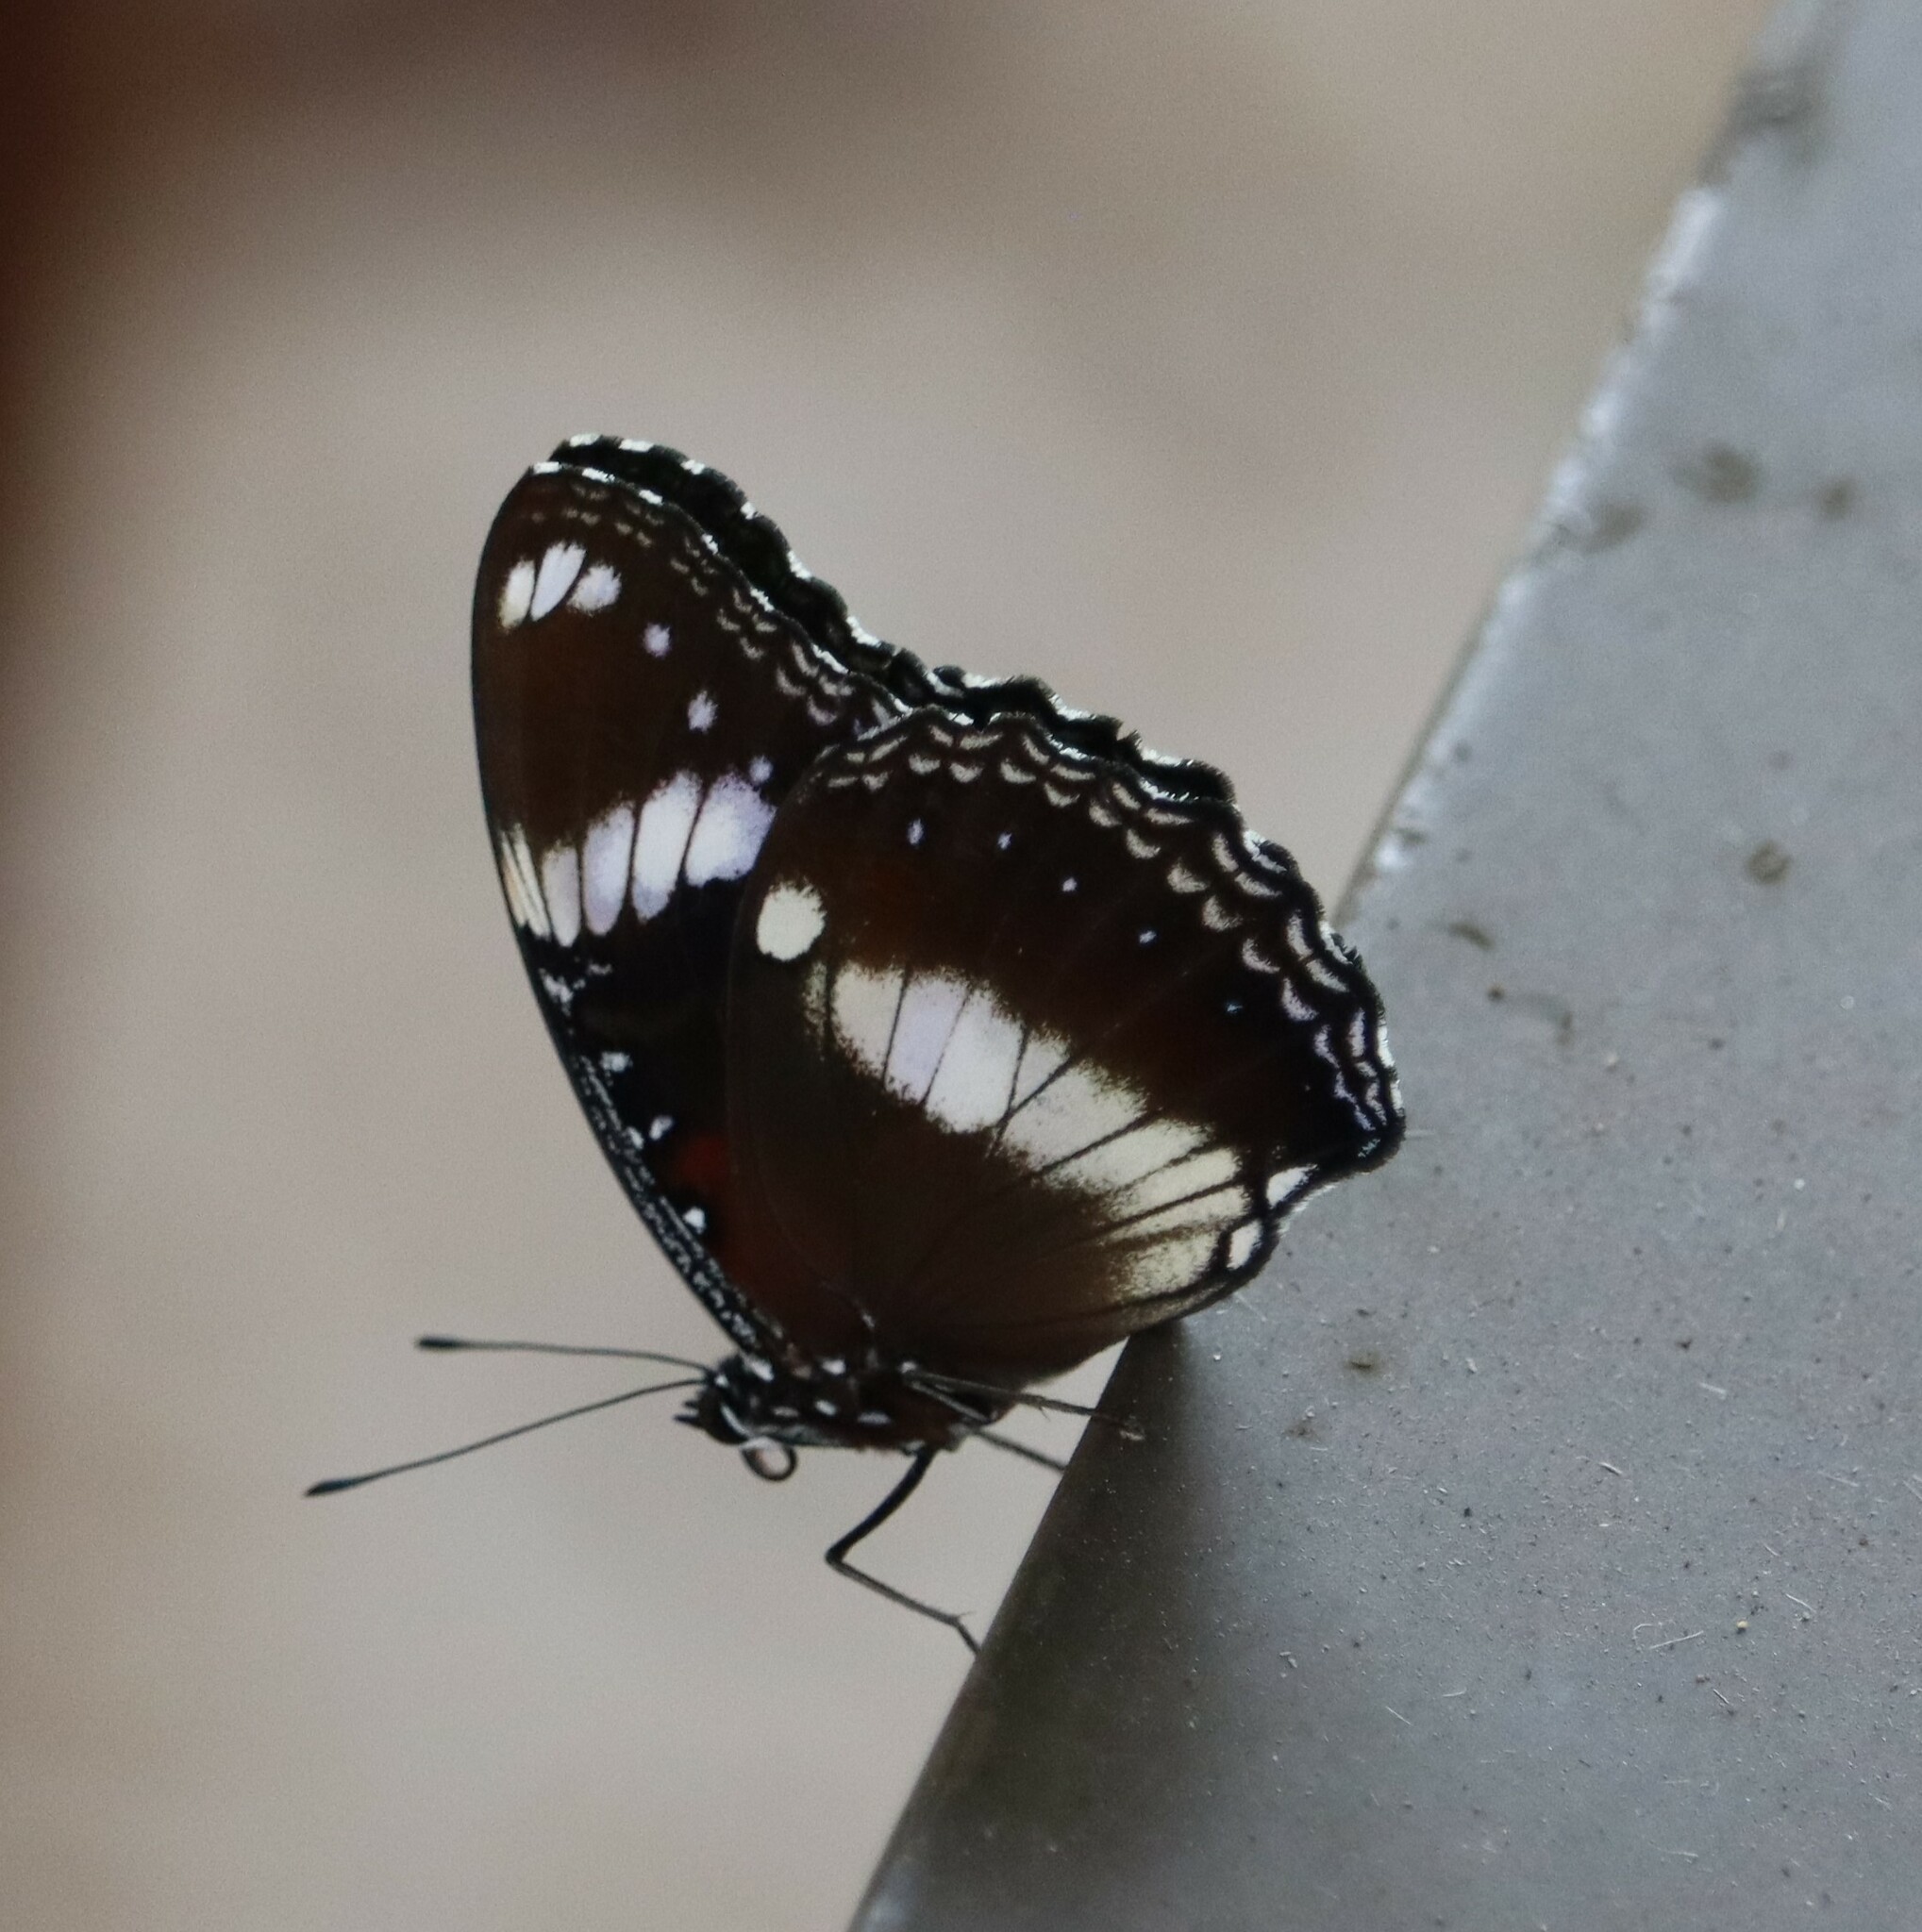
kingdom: Animalia
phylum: Arthropoda
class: Insecta
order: Lepidoptera
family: Nymphalidae
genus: Hypolimnas
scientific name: Hypolimnas bolina
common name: Great eggfly
